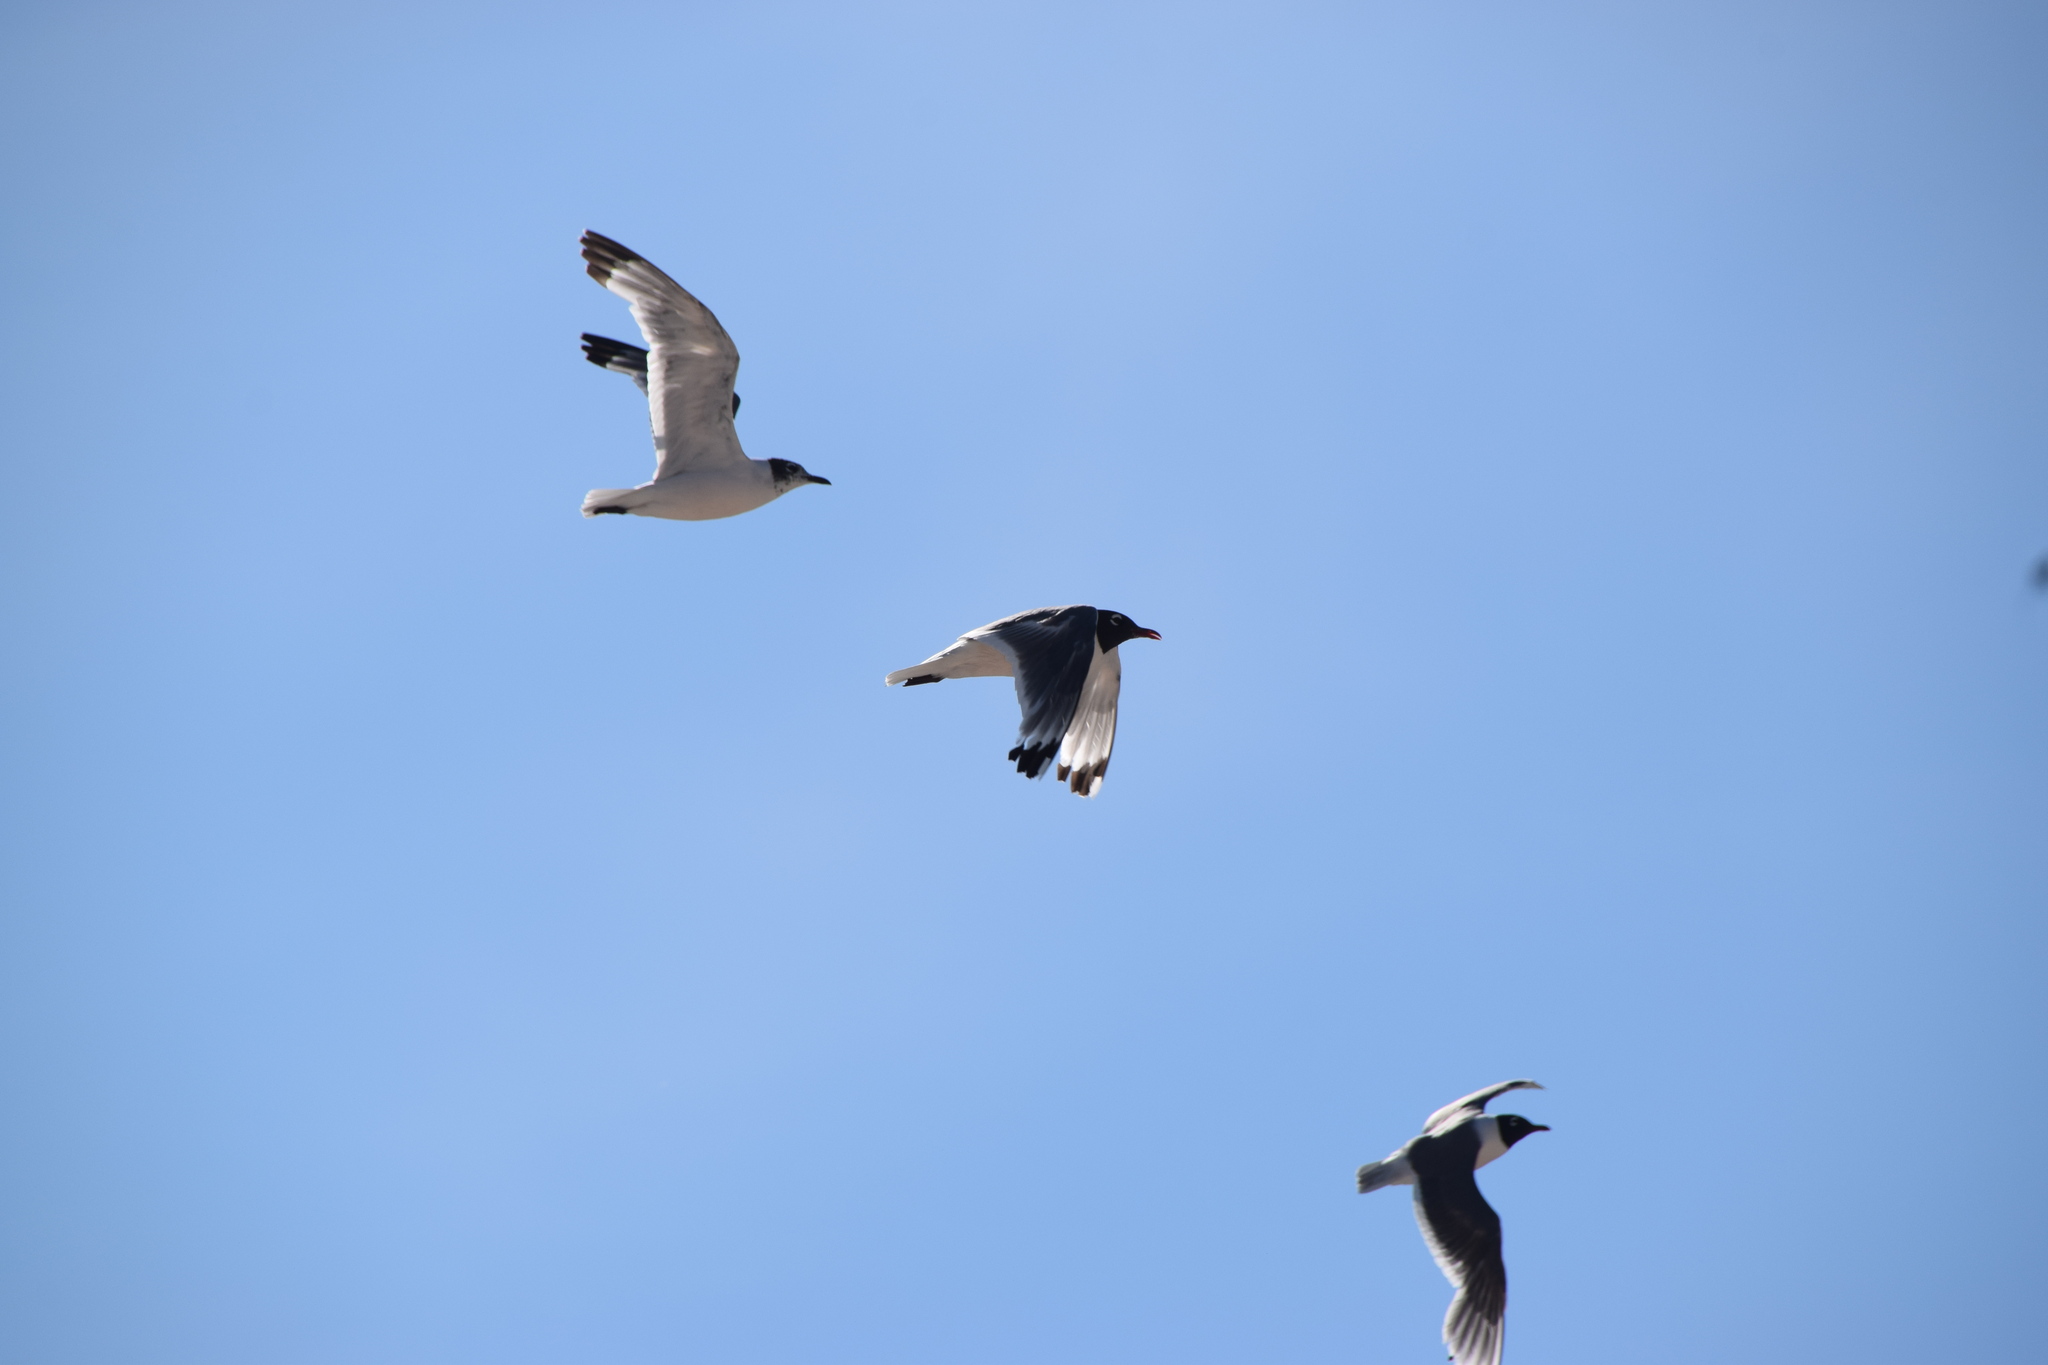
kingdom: Animalia
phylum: Chordata
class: Aves
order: Charadriiformes
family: Laridae
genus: Leucophaeus
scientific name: Leucophaeus pipixcan
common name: Franklin's gull
